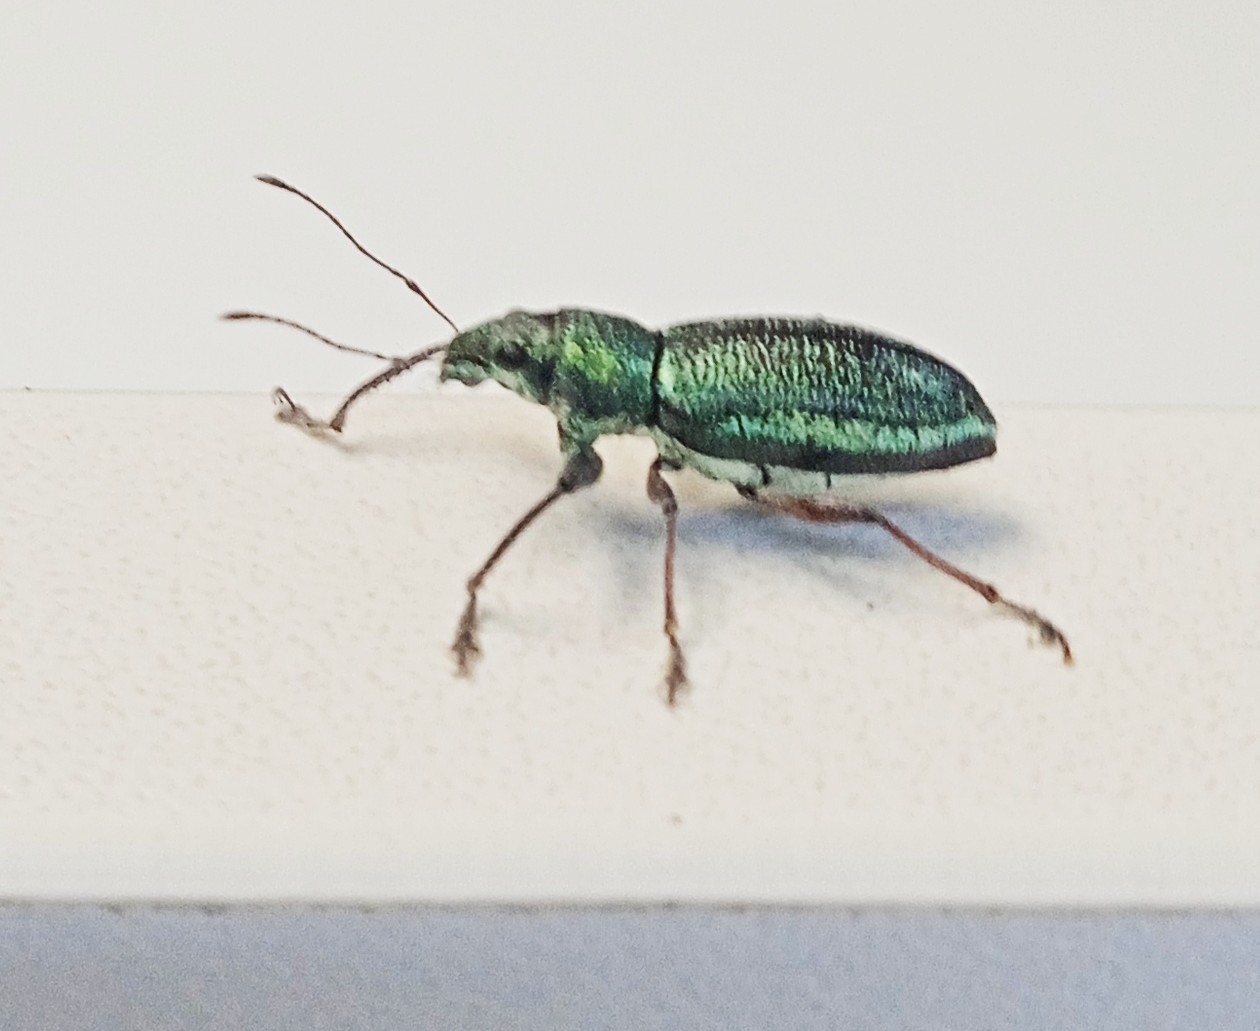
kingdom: Animalia
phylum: Arthropoda
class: Insecta
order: Coleoptera
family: Curculionidae
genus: Naupactus
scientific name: Naupactus auricinctus
